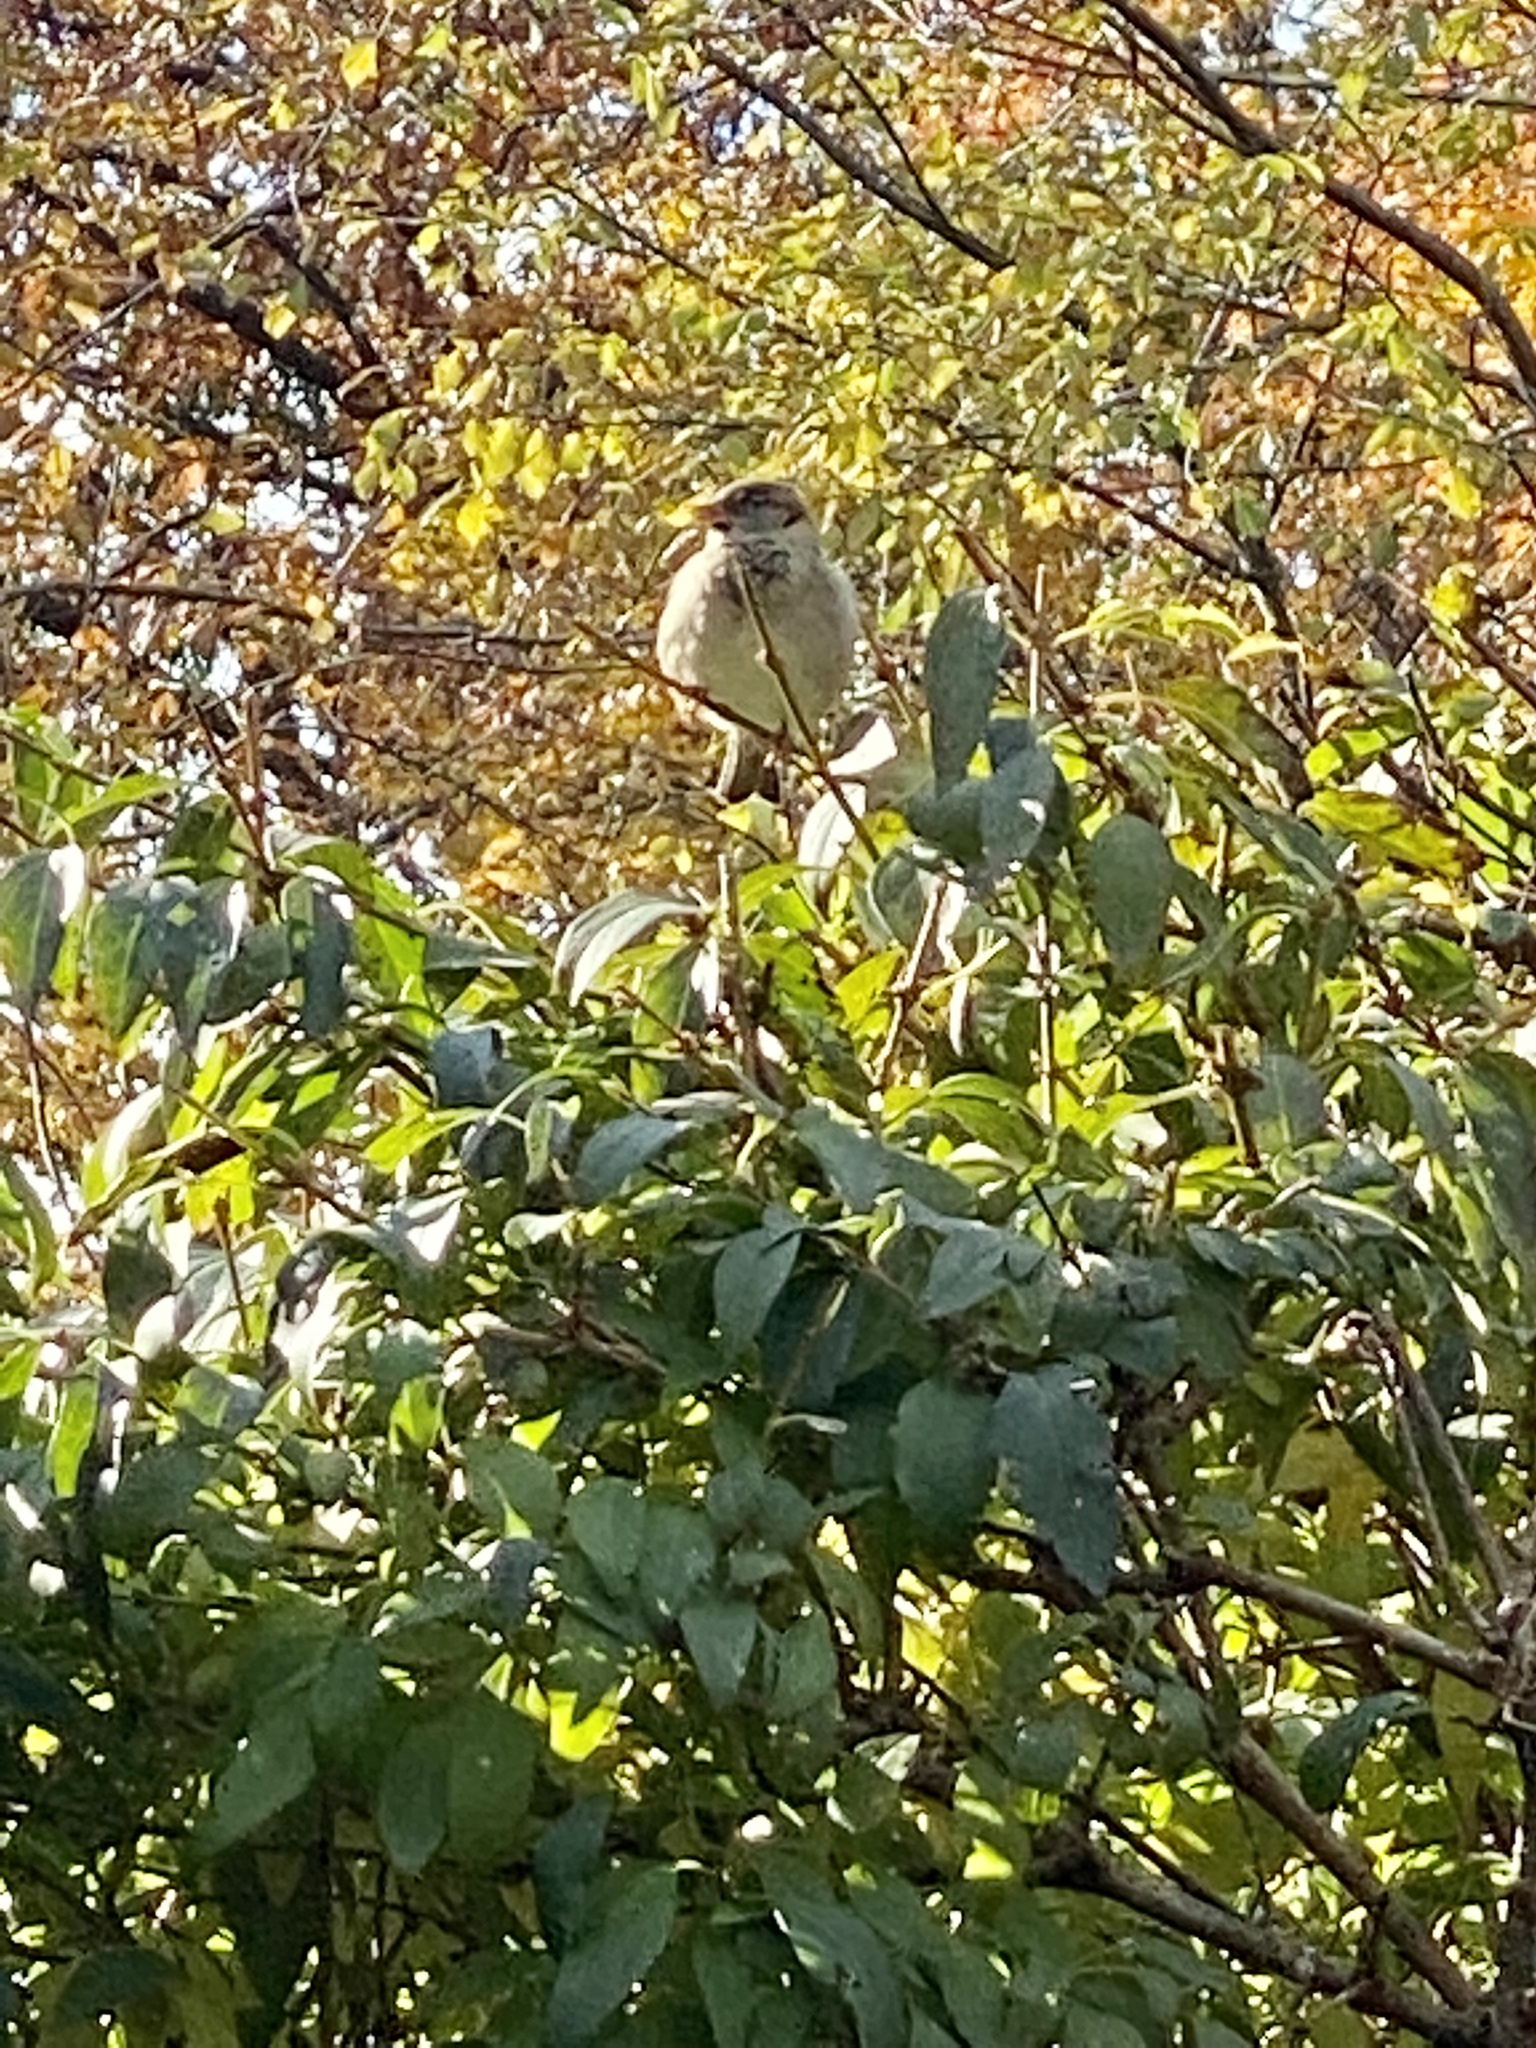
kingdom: Animalia
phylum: Chordata
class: Aves
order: Passeriformes
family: Passeridae
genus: Passer
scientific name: Passer domesticus
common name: House sparrow
